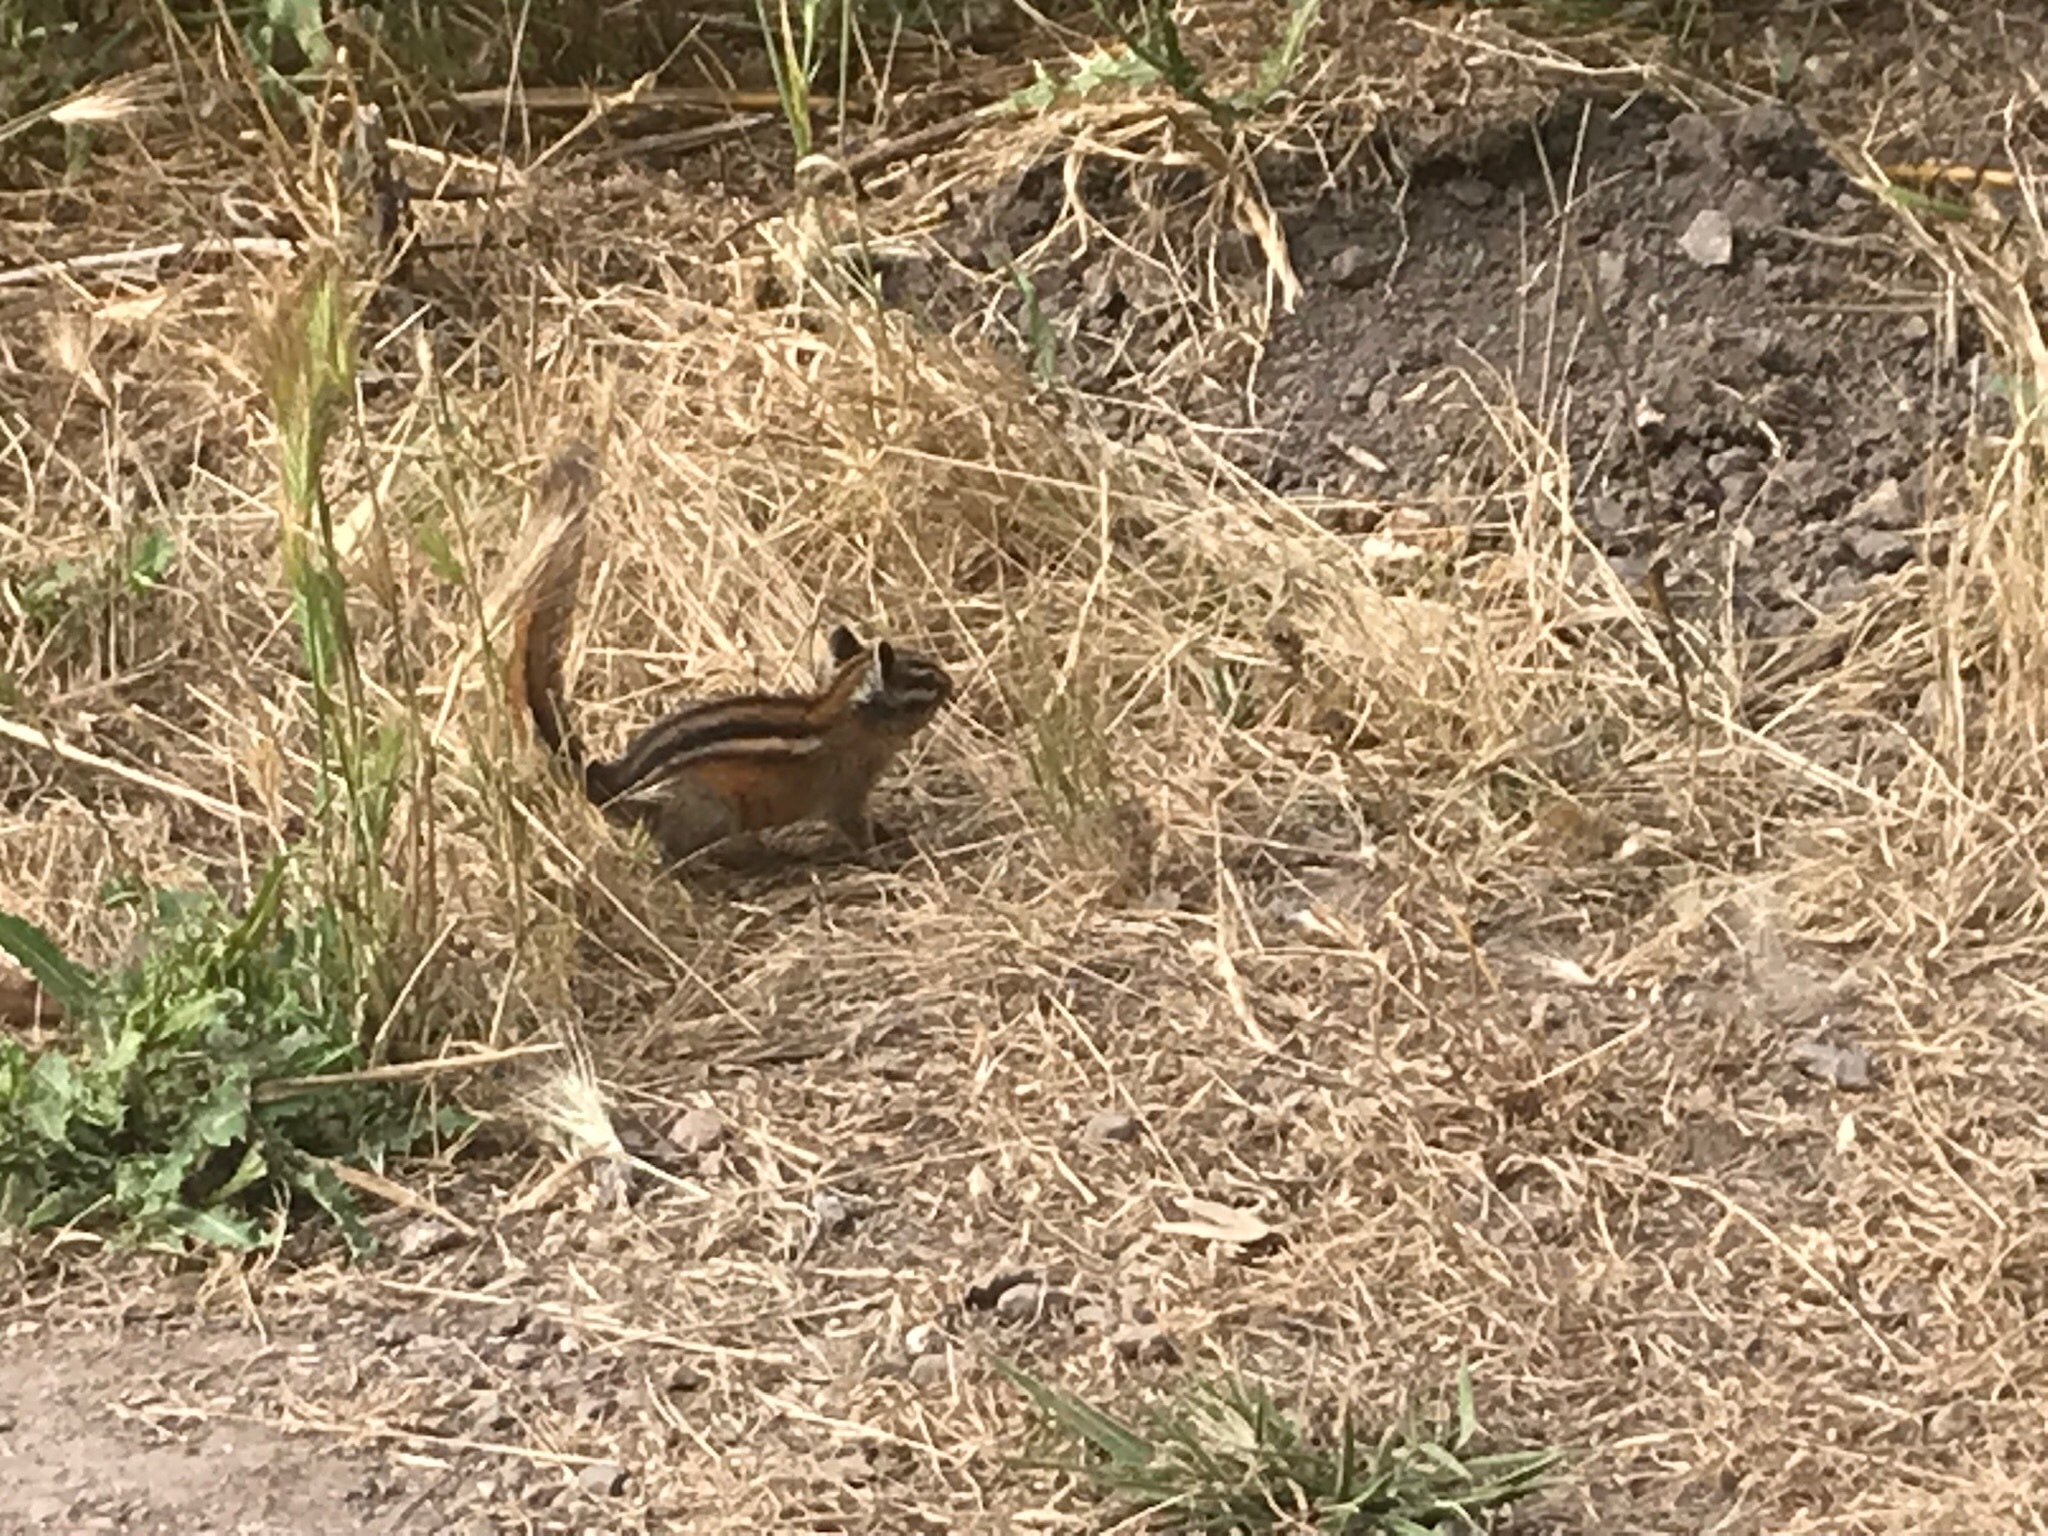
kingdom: Animalia
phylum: Chordata
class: Mammalia
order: Rodentia
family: Sciuridae
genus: Tamias
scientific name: Tamias sonomae
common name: Sonoma chipmunk
